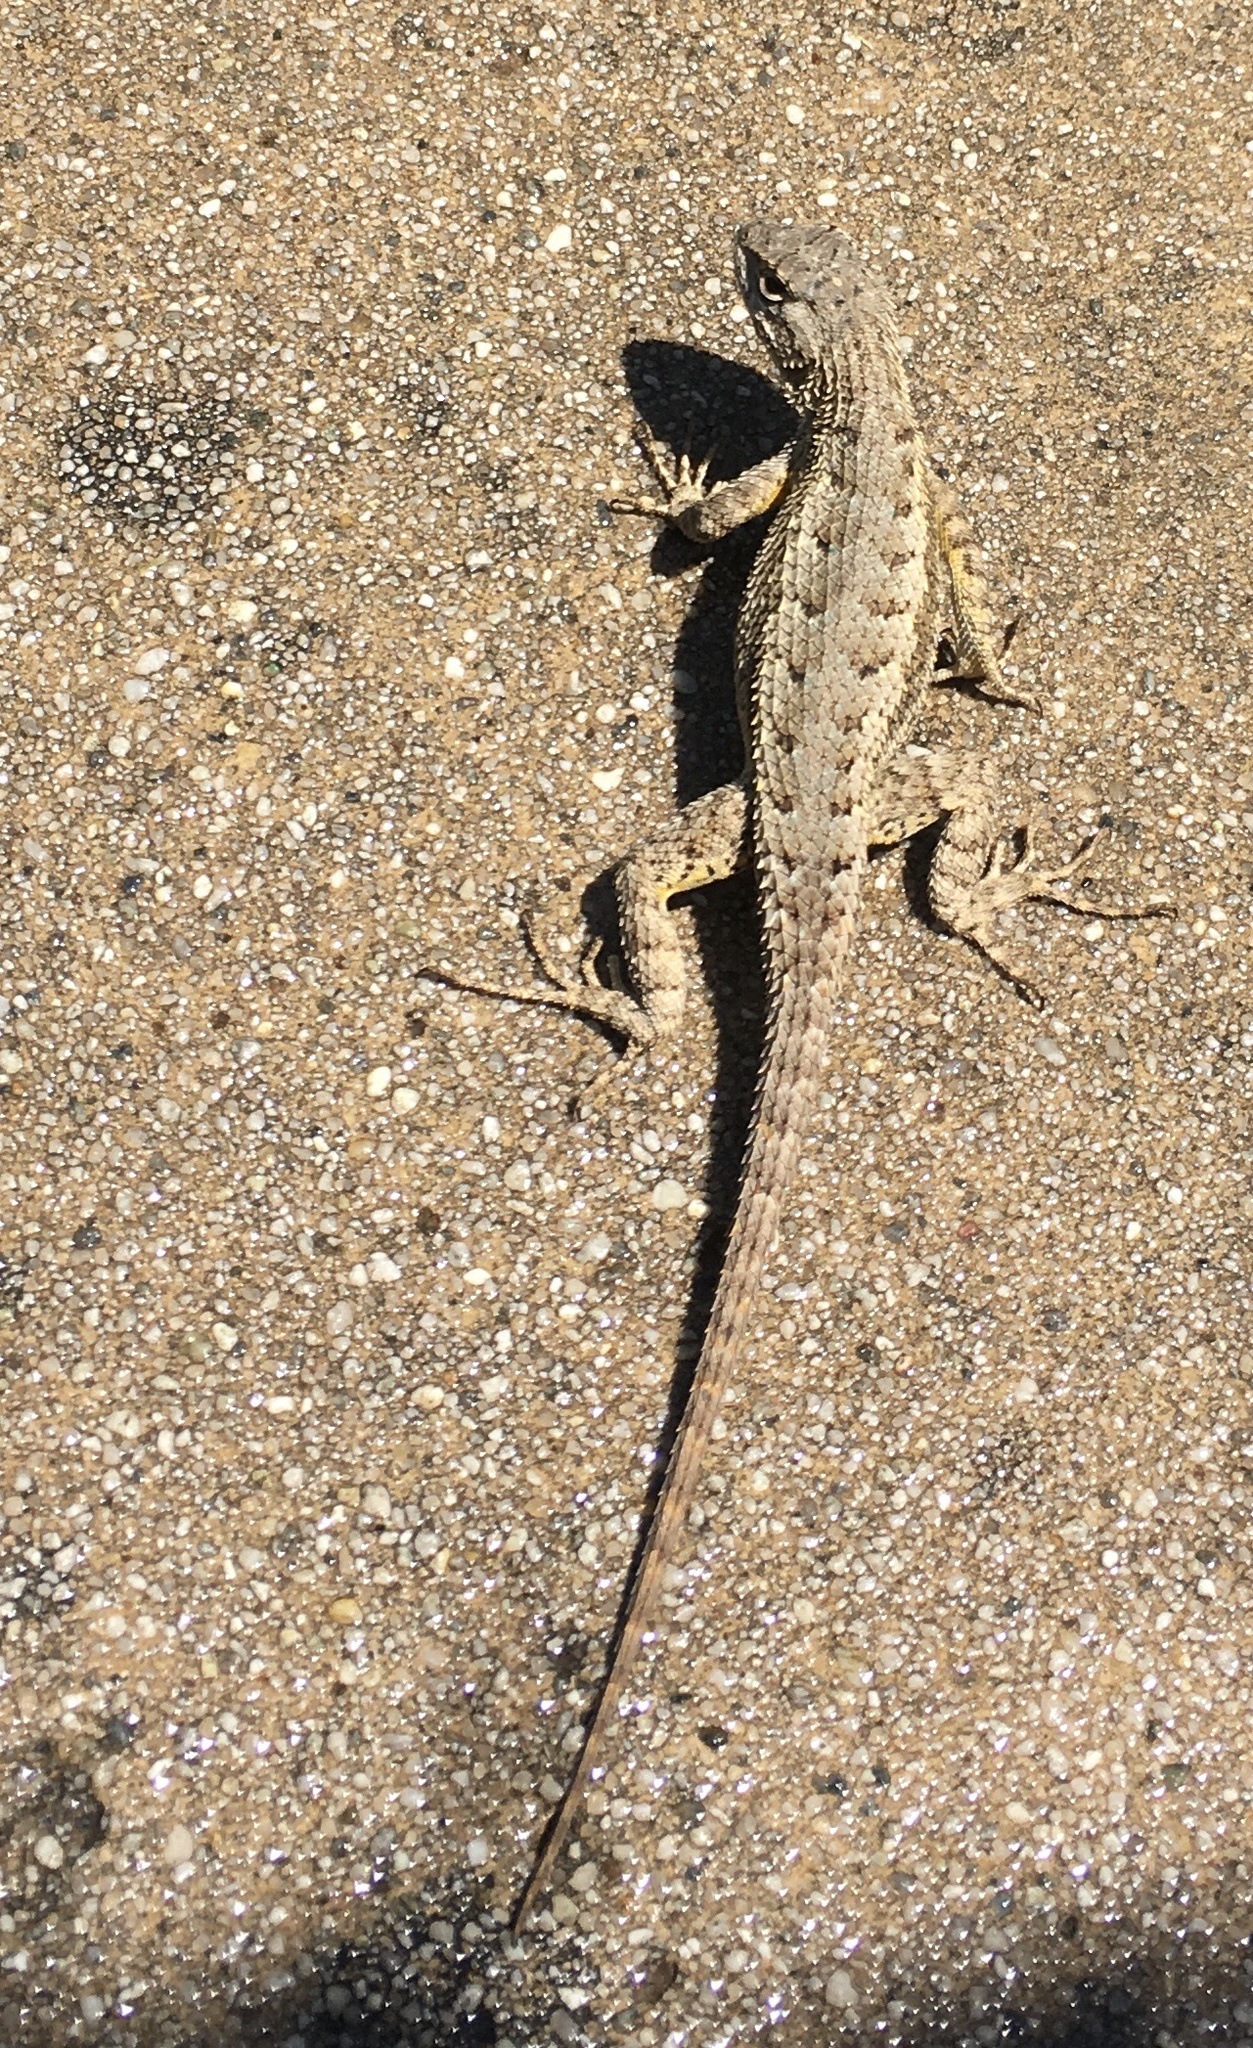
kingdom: Animalia
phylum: Chordata
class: Squamata
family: Phrynosomatidae
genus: Sceloporus
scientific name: Sceloporus occidentalis
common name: Western fence lizard
